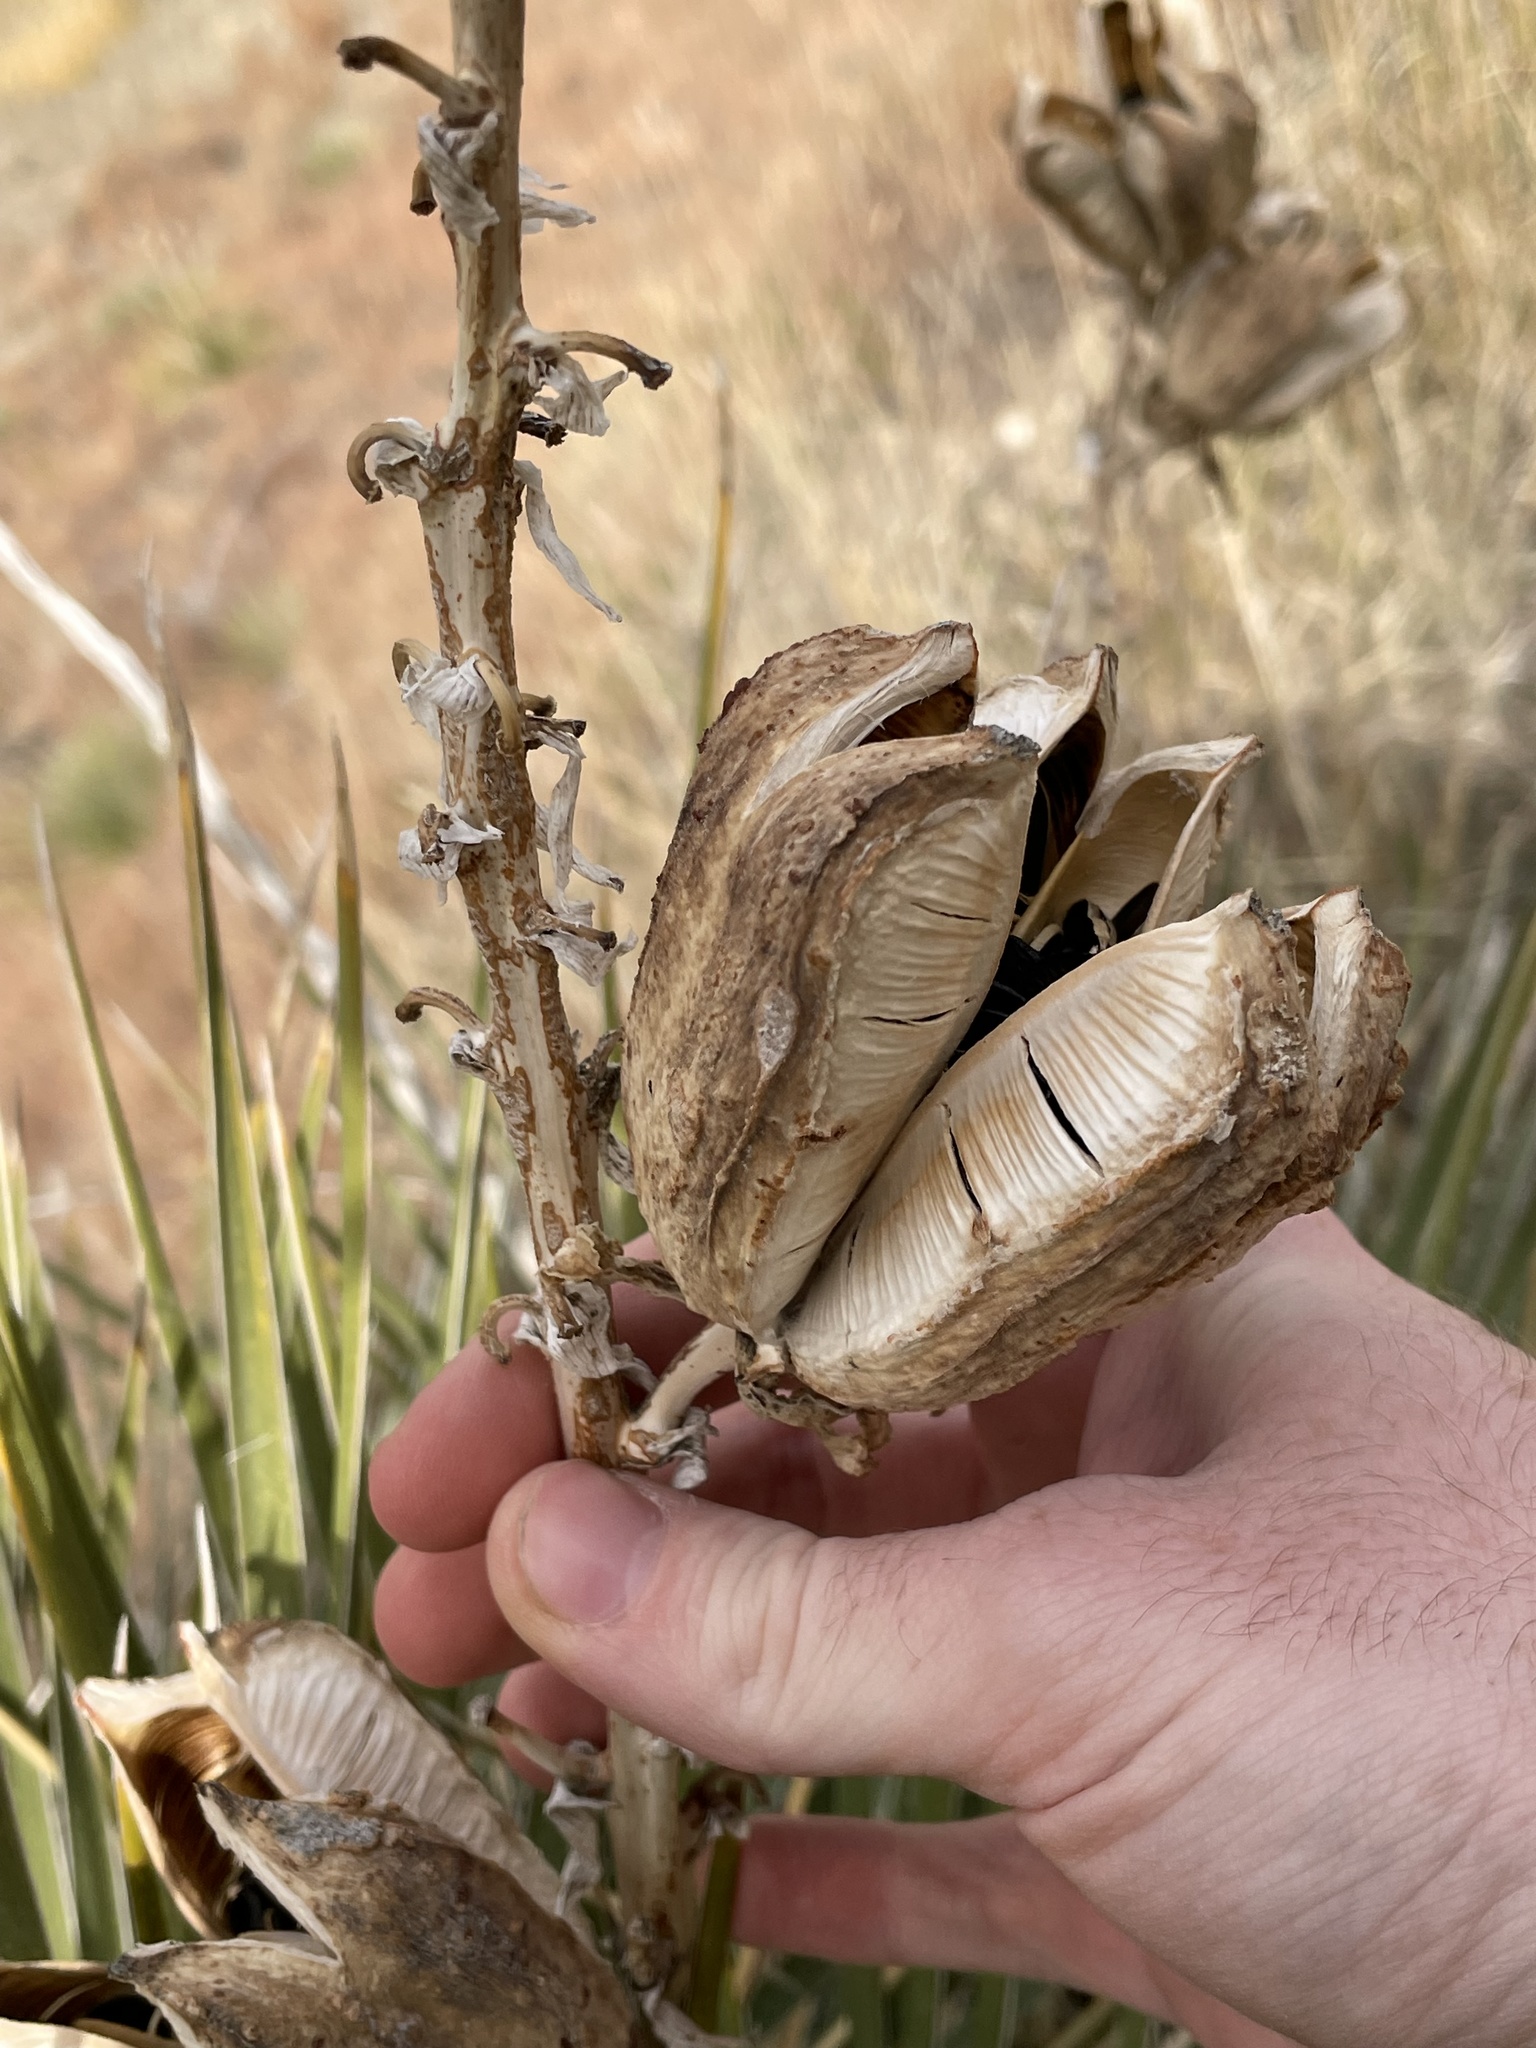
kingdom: Plantae
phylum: Tracheophyta
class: Liliopsida
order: Asparagales
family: Asparagaceae
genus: Yucca
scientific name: Yucca glauca
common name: Great plains yucca
